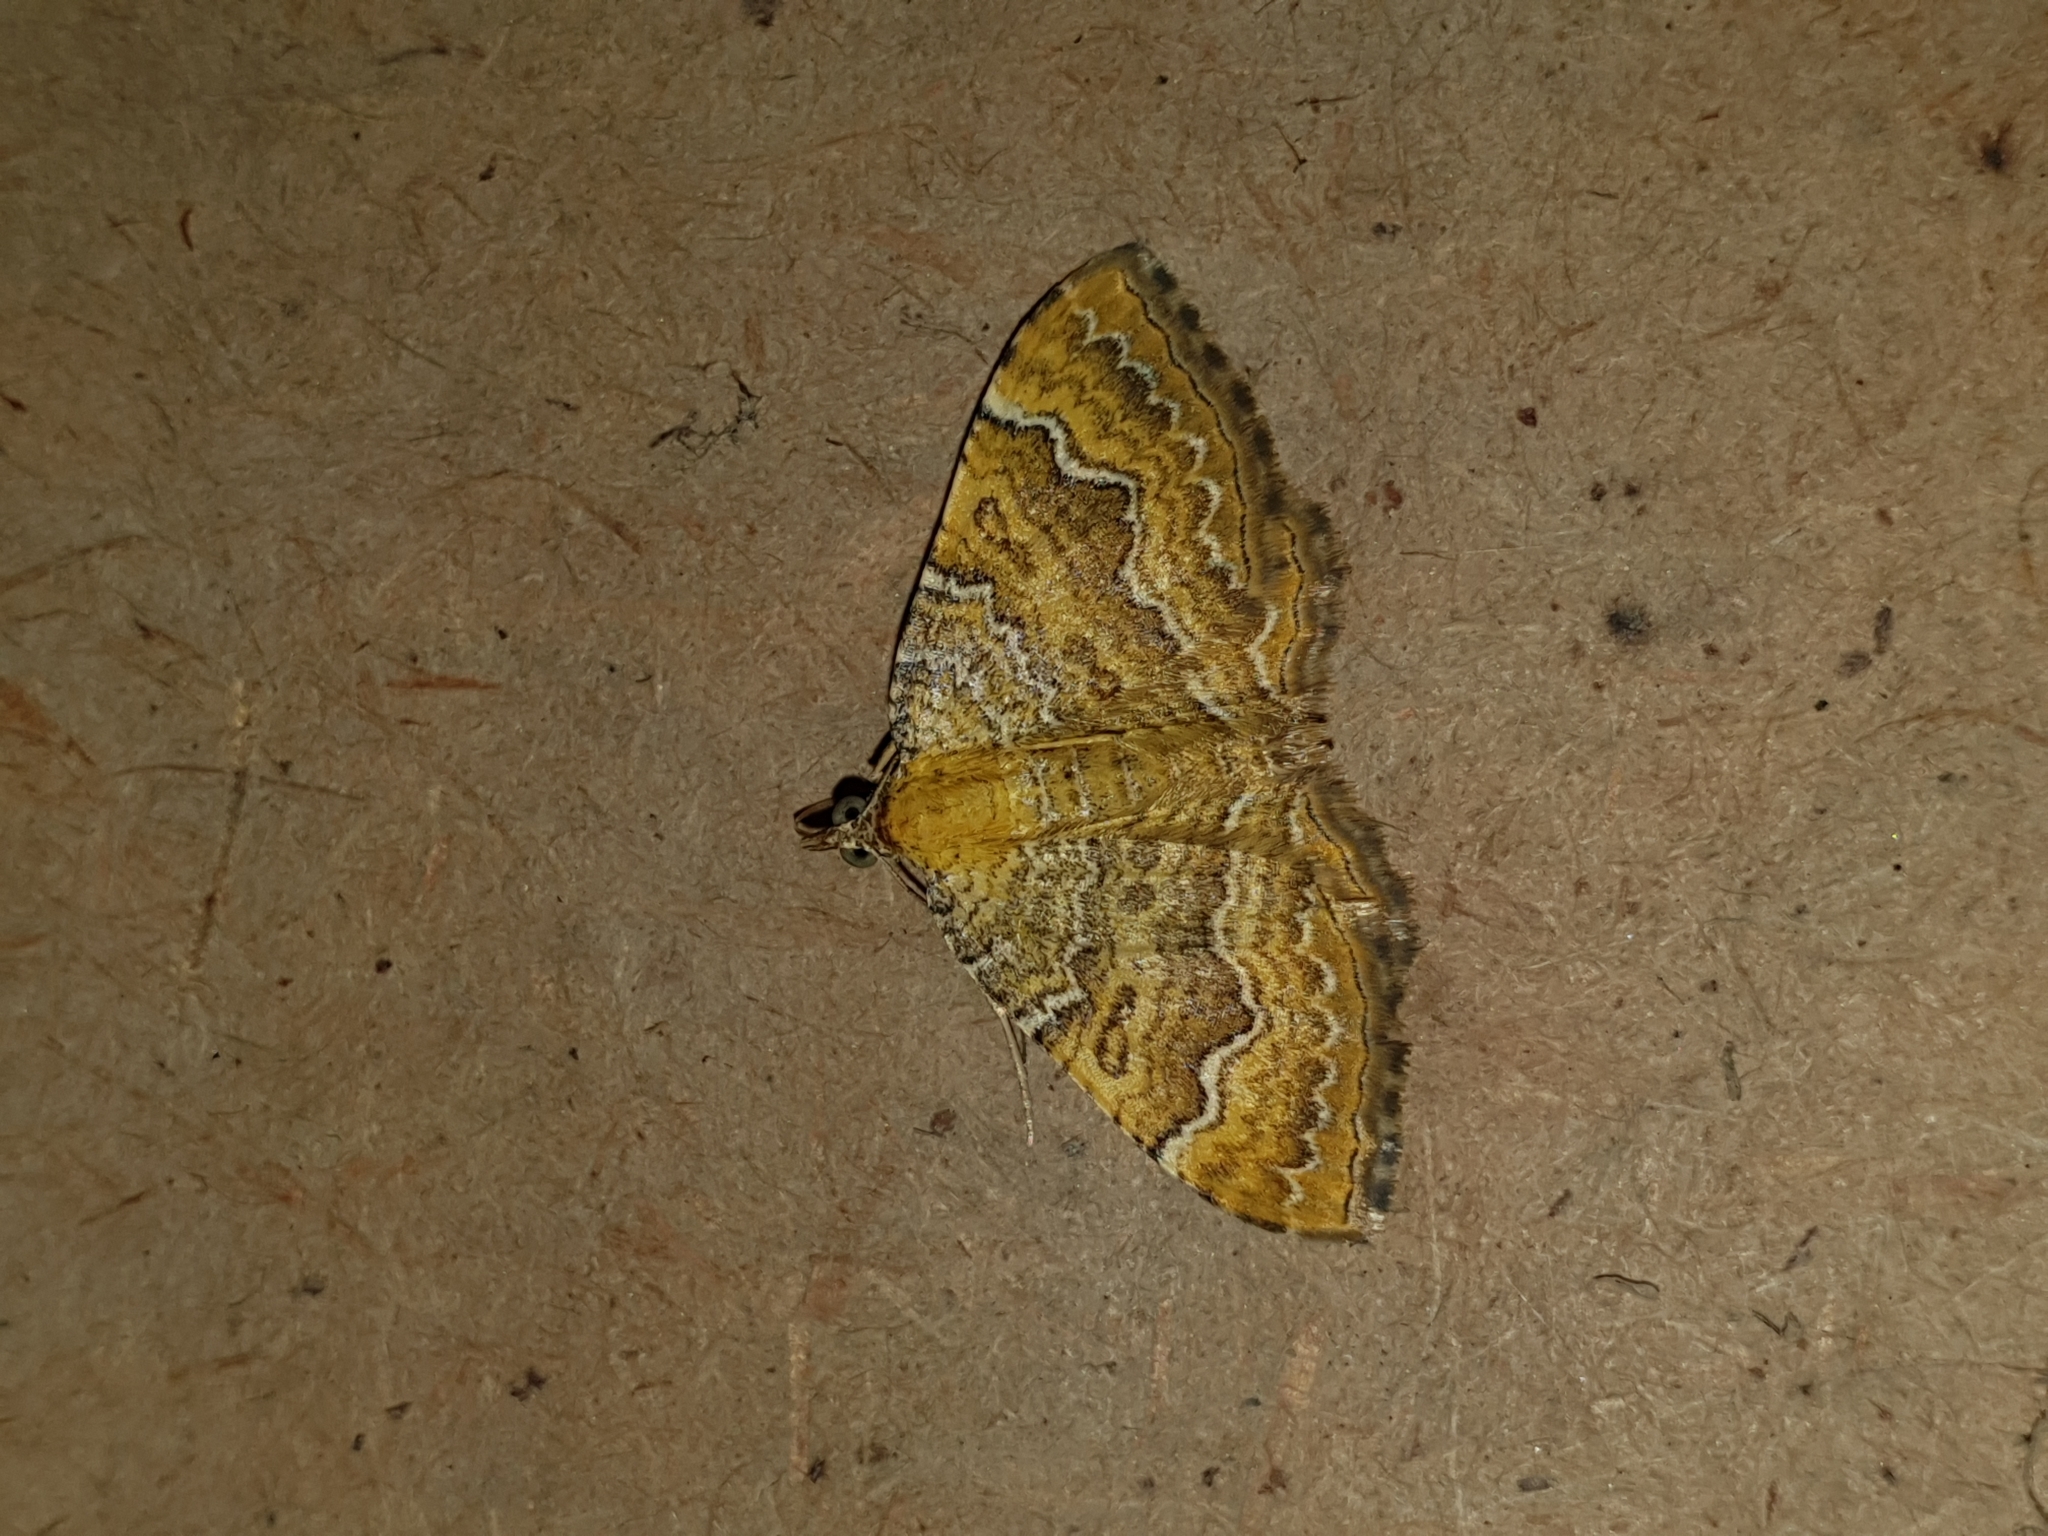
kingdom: Animalia
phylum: Arthropoda
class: Insecta
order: Lepidoptera
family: Geometridae
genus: Camptogramma
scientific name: Camptogramma bilineata
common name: Yellow shell
